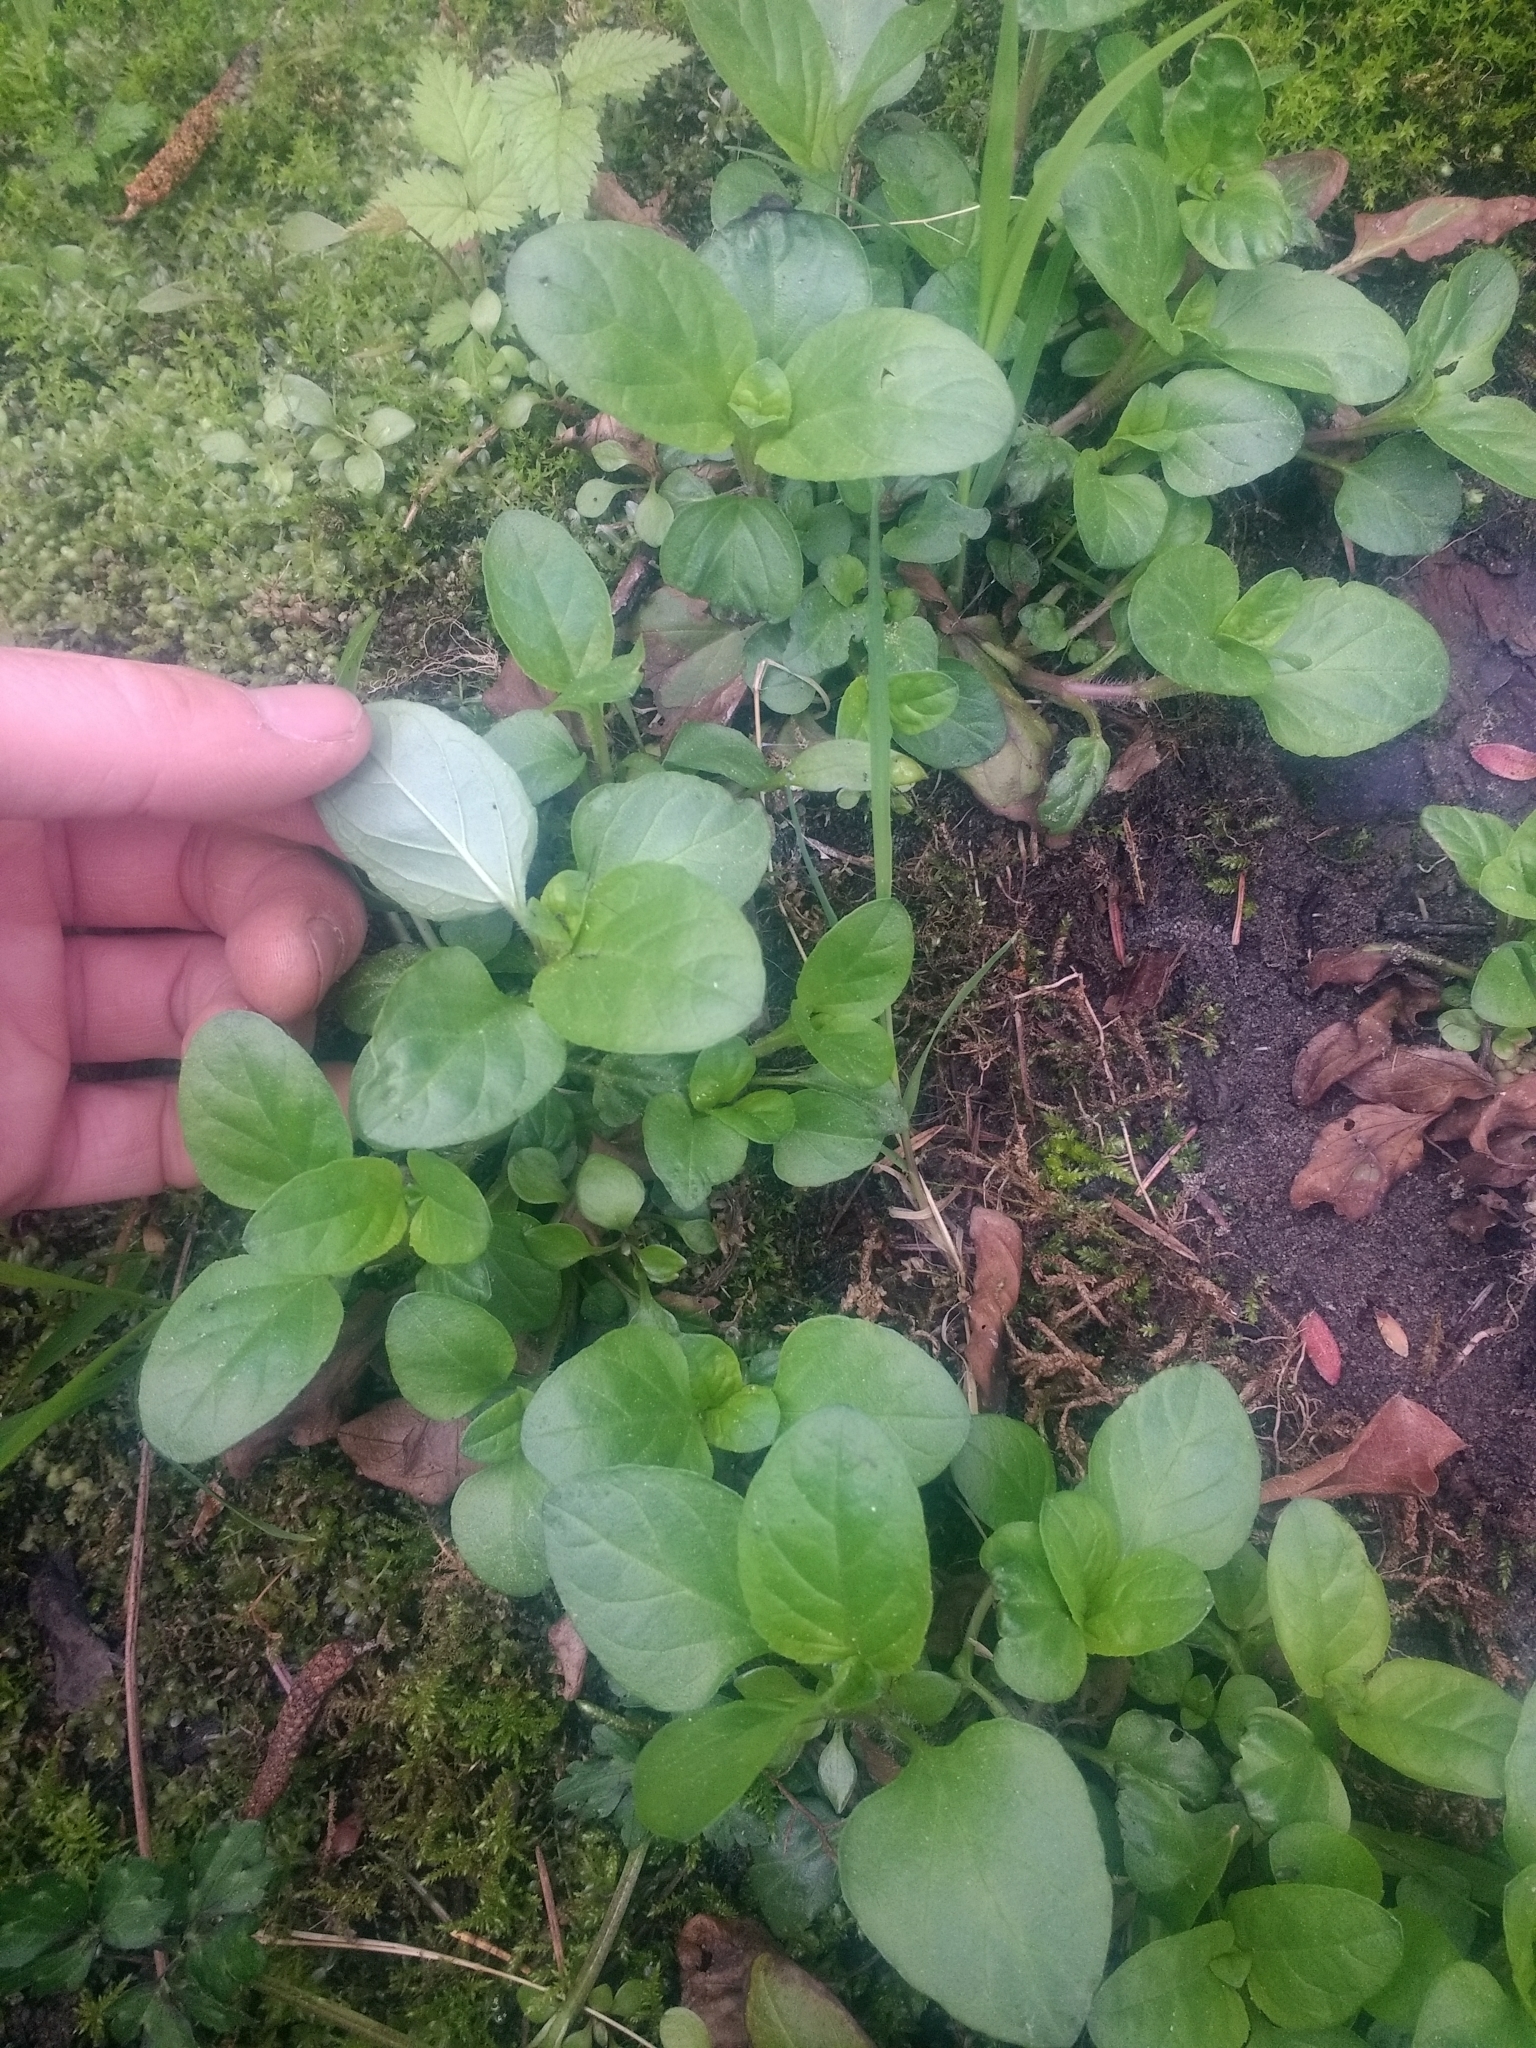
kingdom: Plantae
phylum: Tracheophyta
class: Magnoliopsida
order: Lamiales
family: Lamiaceae
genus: Prunella
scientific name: Prunella vulgaris
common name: Heal-all
